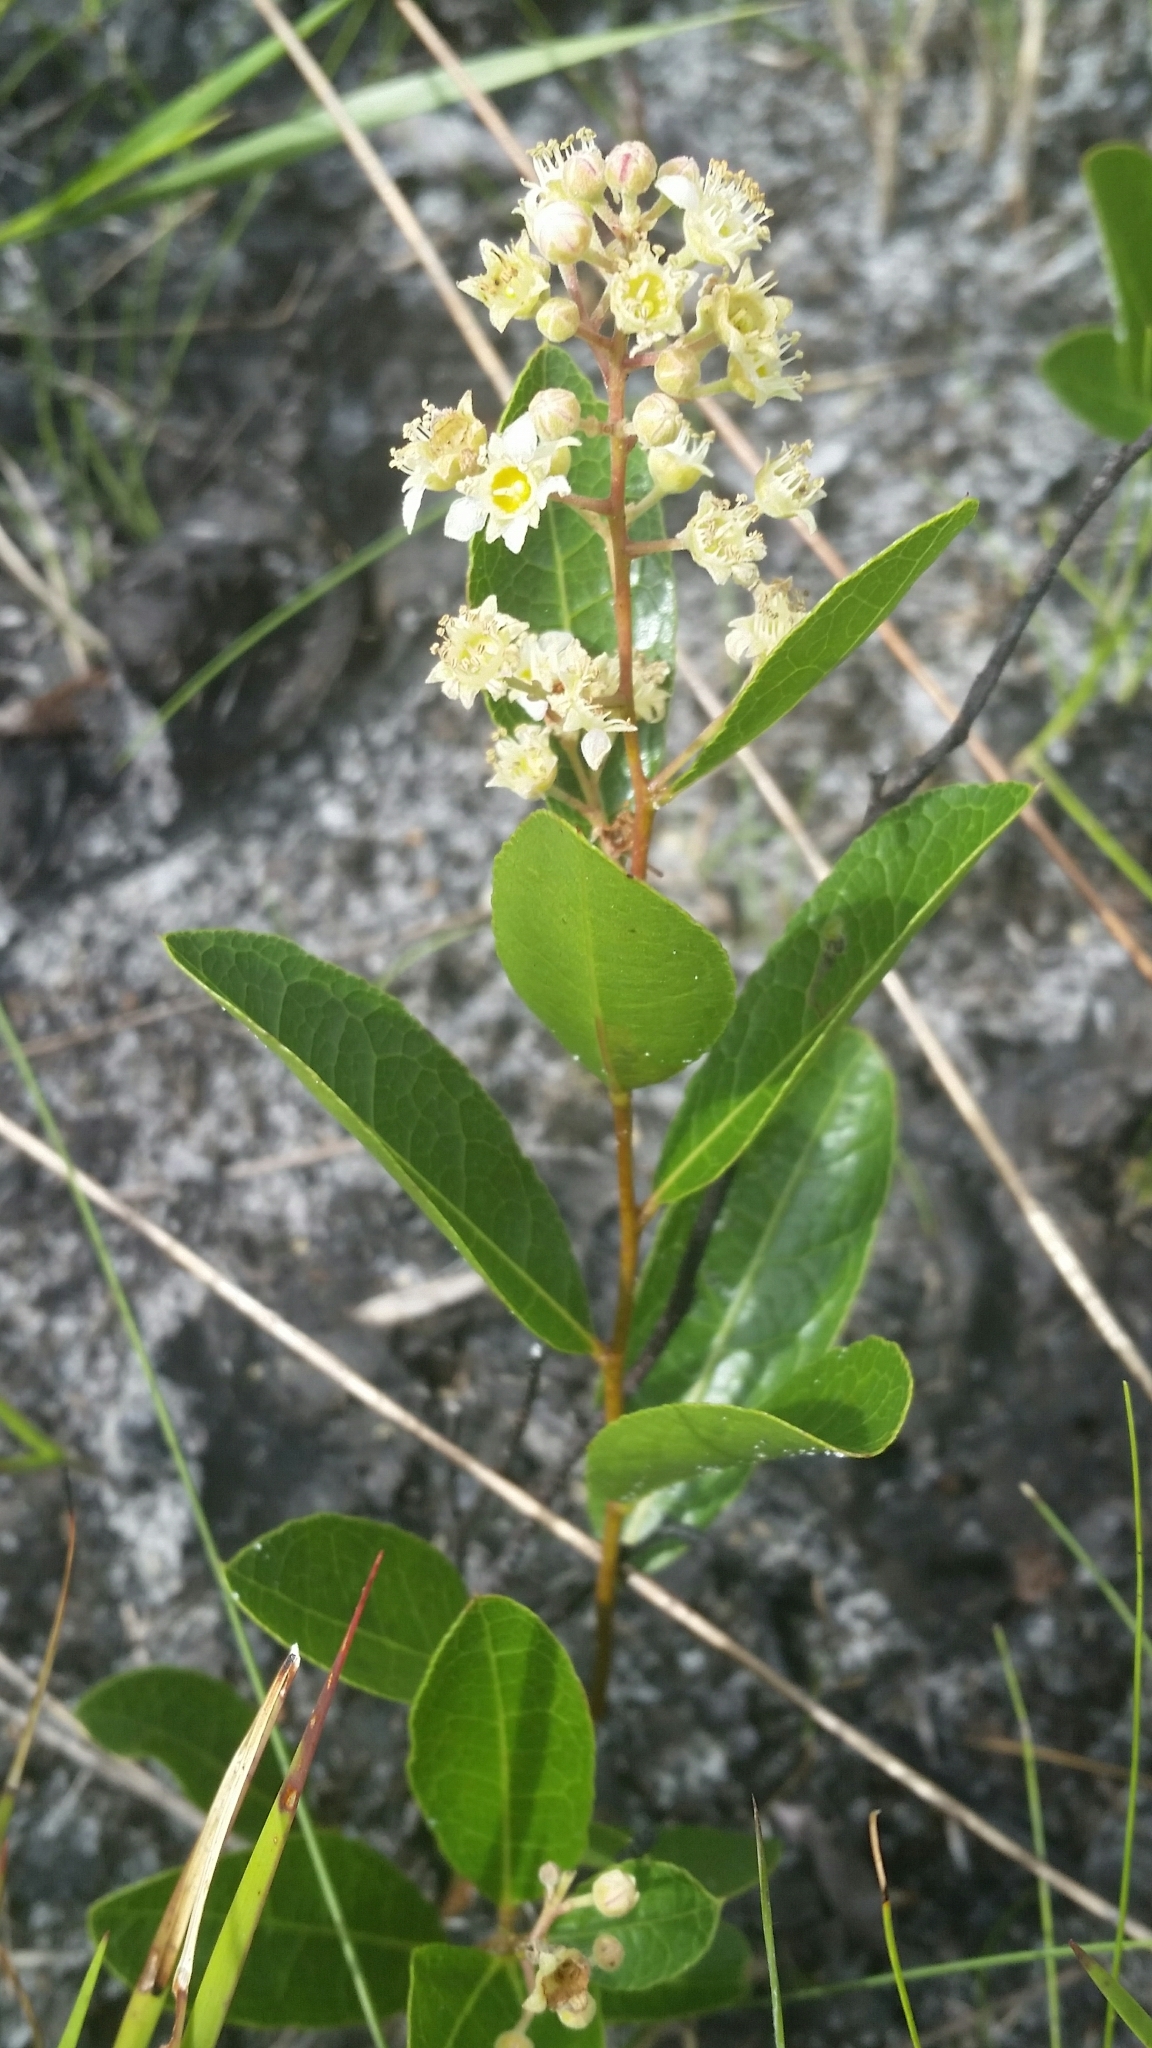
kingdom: Plantae
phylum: Tracheophyta
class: Magnoliopsida
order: Malpighiales
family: Chrysobalanaceae
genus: Geobalanus
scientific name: Geobalanus oblongifolius
